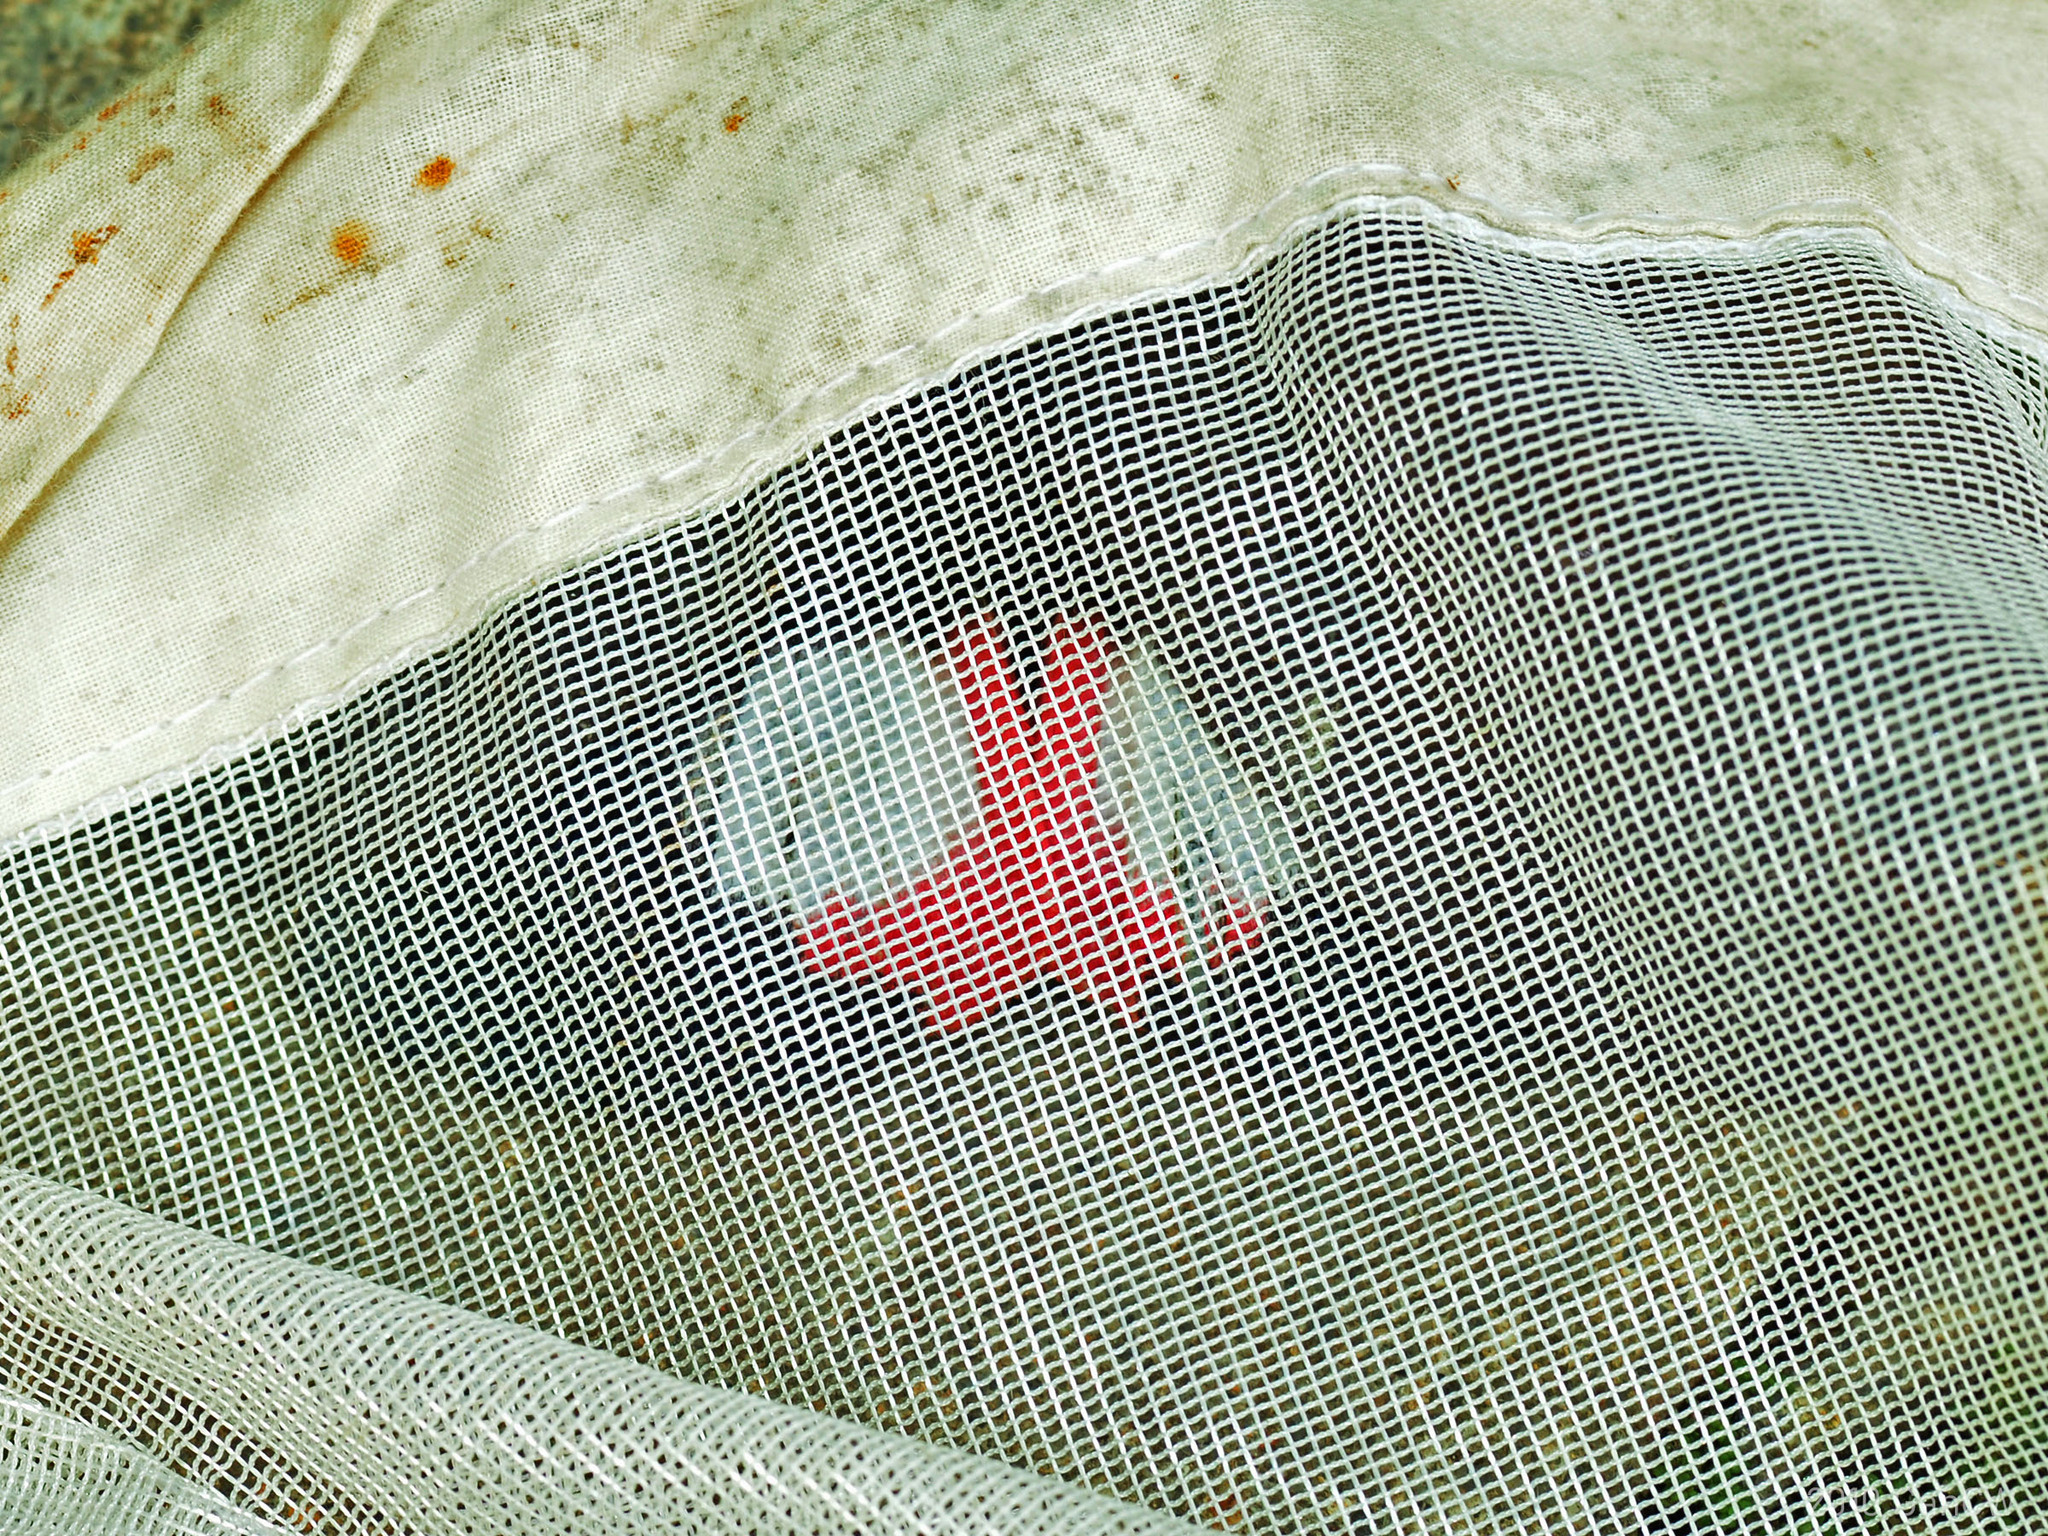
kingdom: Animalia
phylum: Arthropoda
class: Insecta
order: Lepidoptera
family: Erebidae
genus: Phyllodes
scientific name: Phyllodes verhuelli
